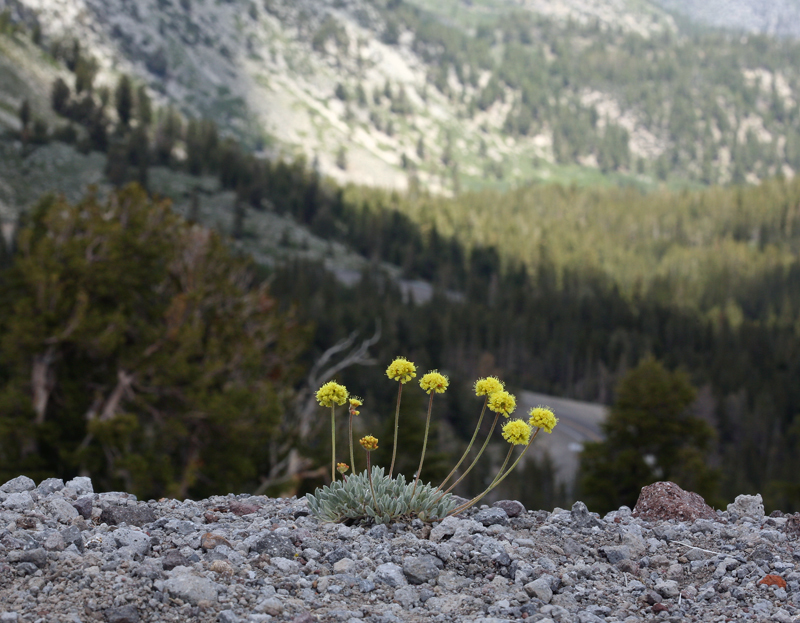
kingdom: Plantae
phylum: Tracheophyta
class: Magnoliopsida
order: Caryophyllales
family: Polygonaceae
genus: Eriogonum
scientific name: Eriogonum rosense
